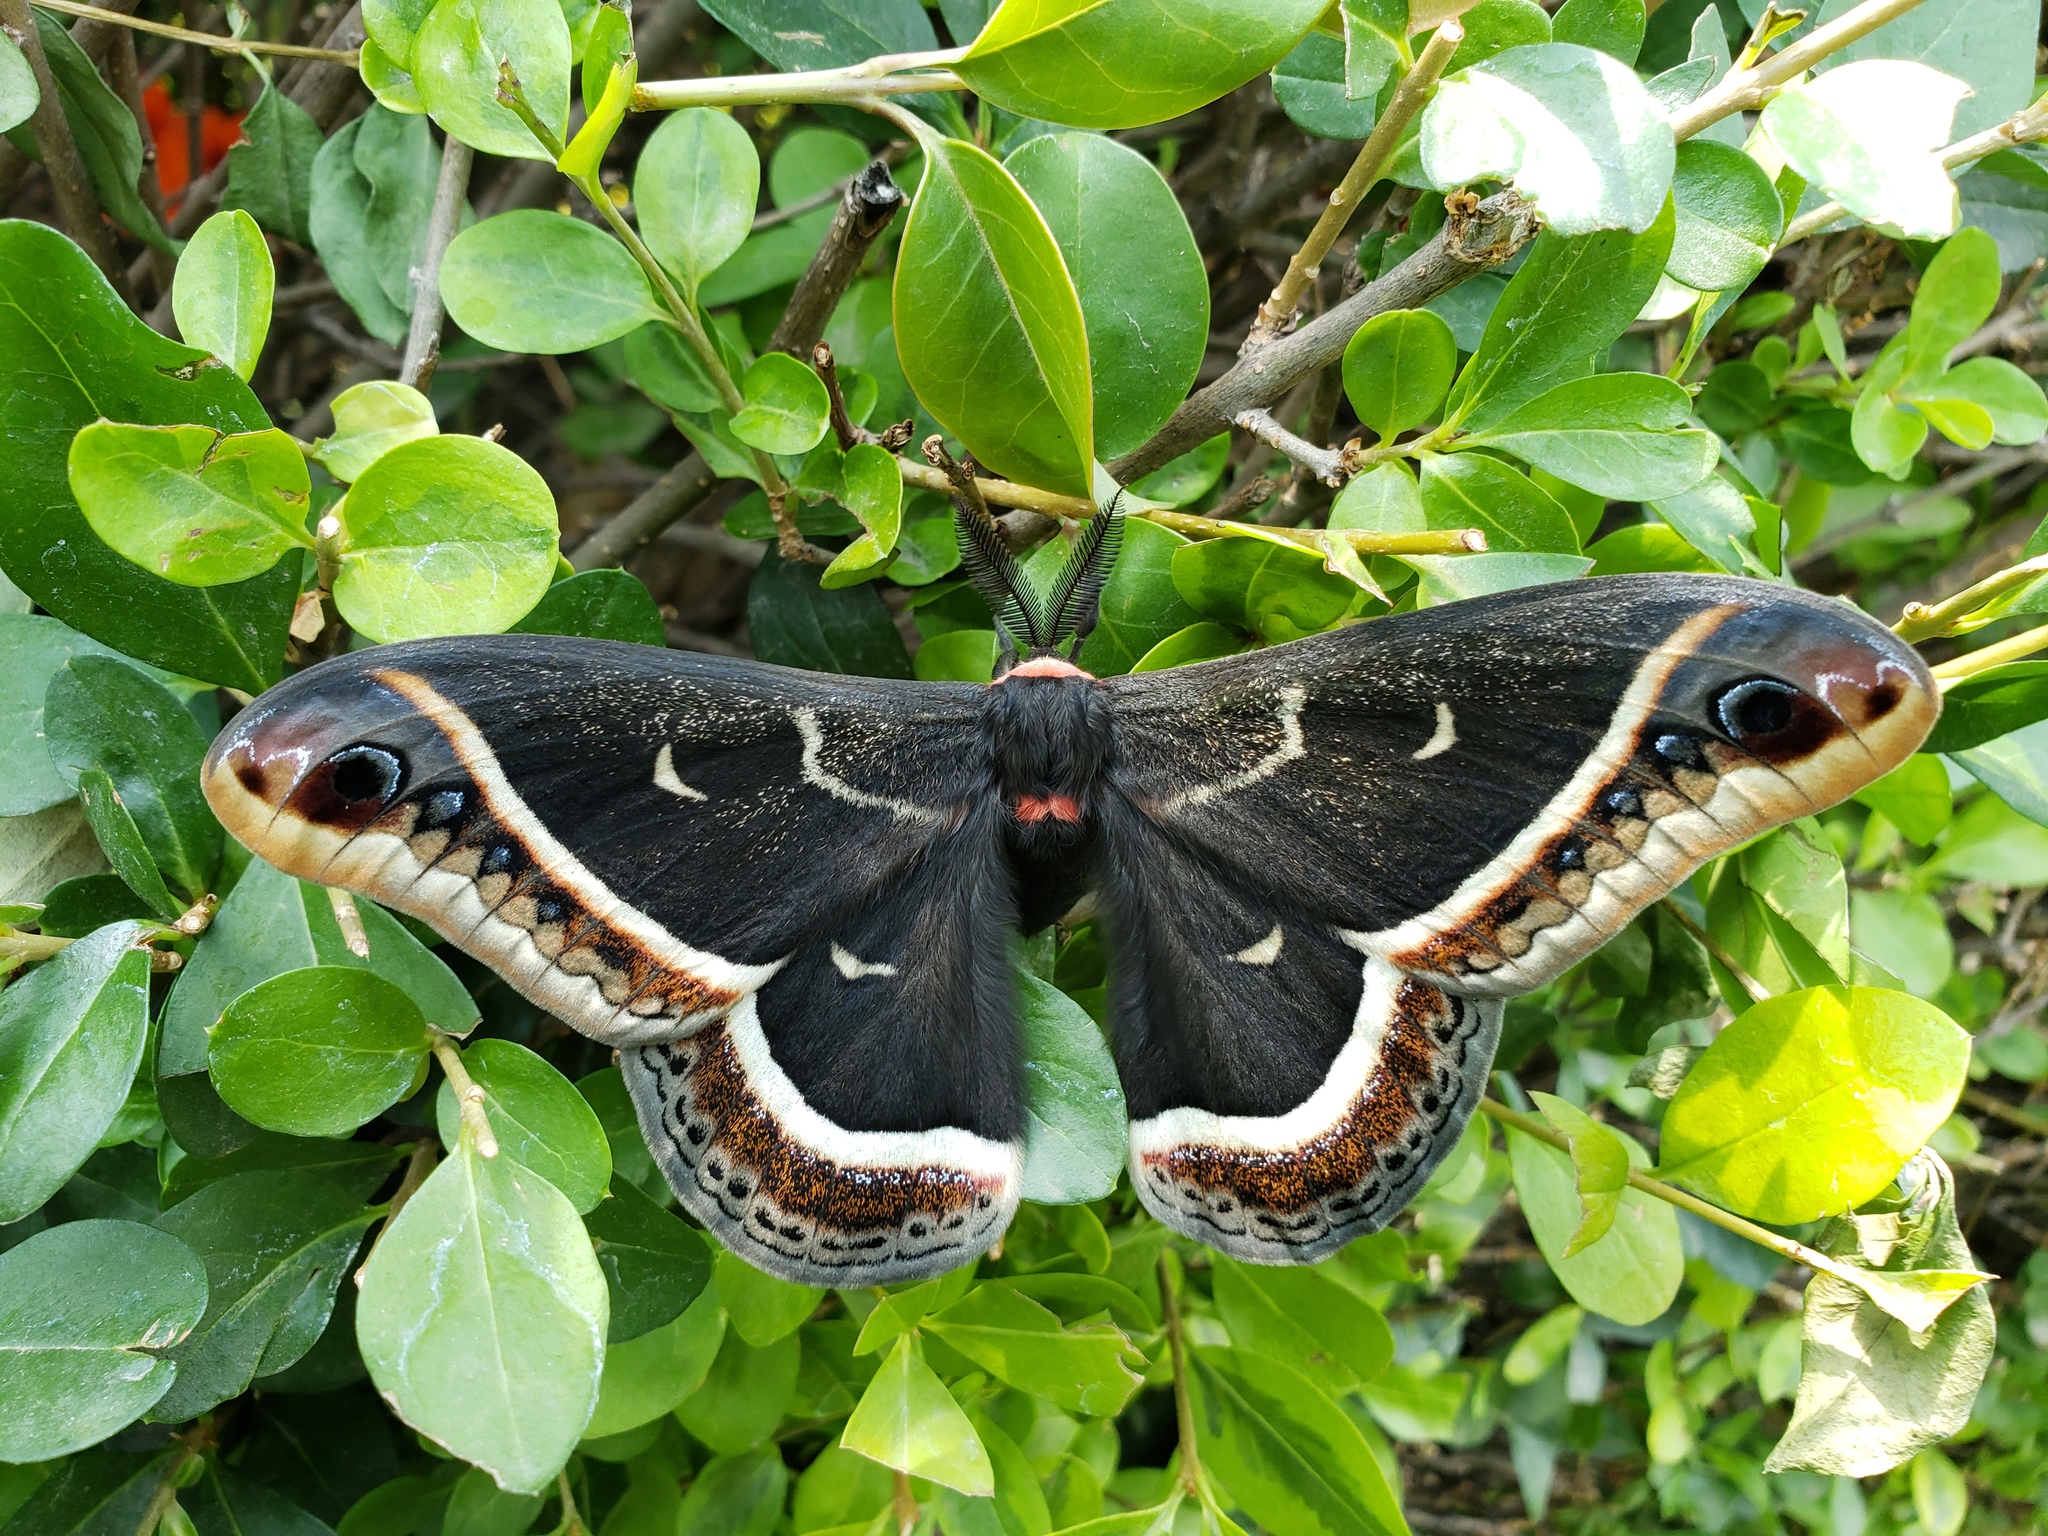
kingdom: Animalia
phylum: Arthropoda
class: Insecta
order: Lepidoptera
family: Saturniidae
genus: Eupackardia
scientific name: Eupackardia calleta
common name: Calleta silkmoth
